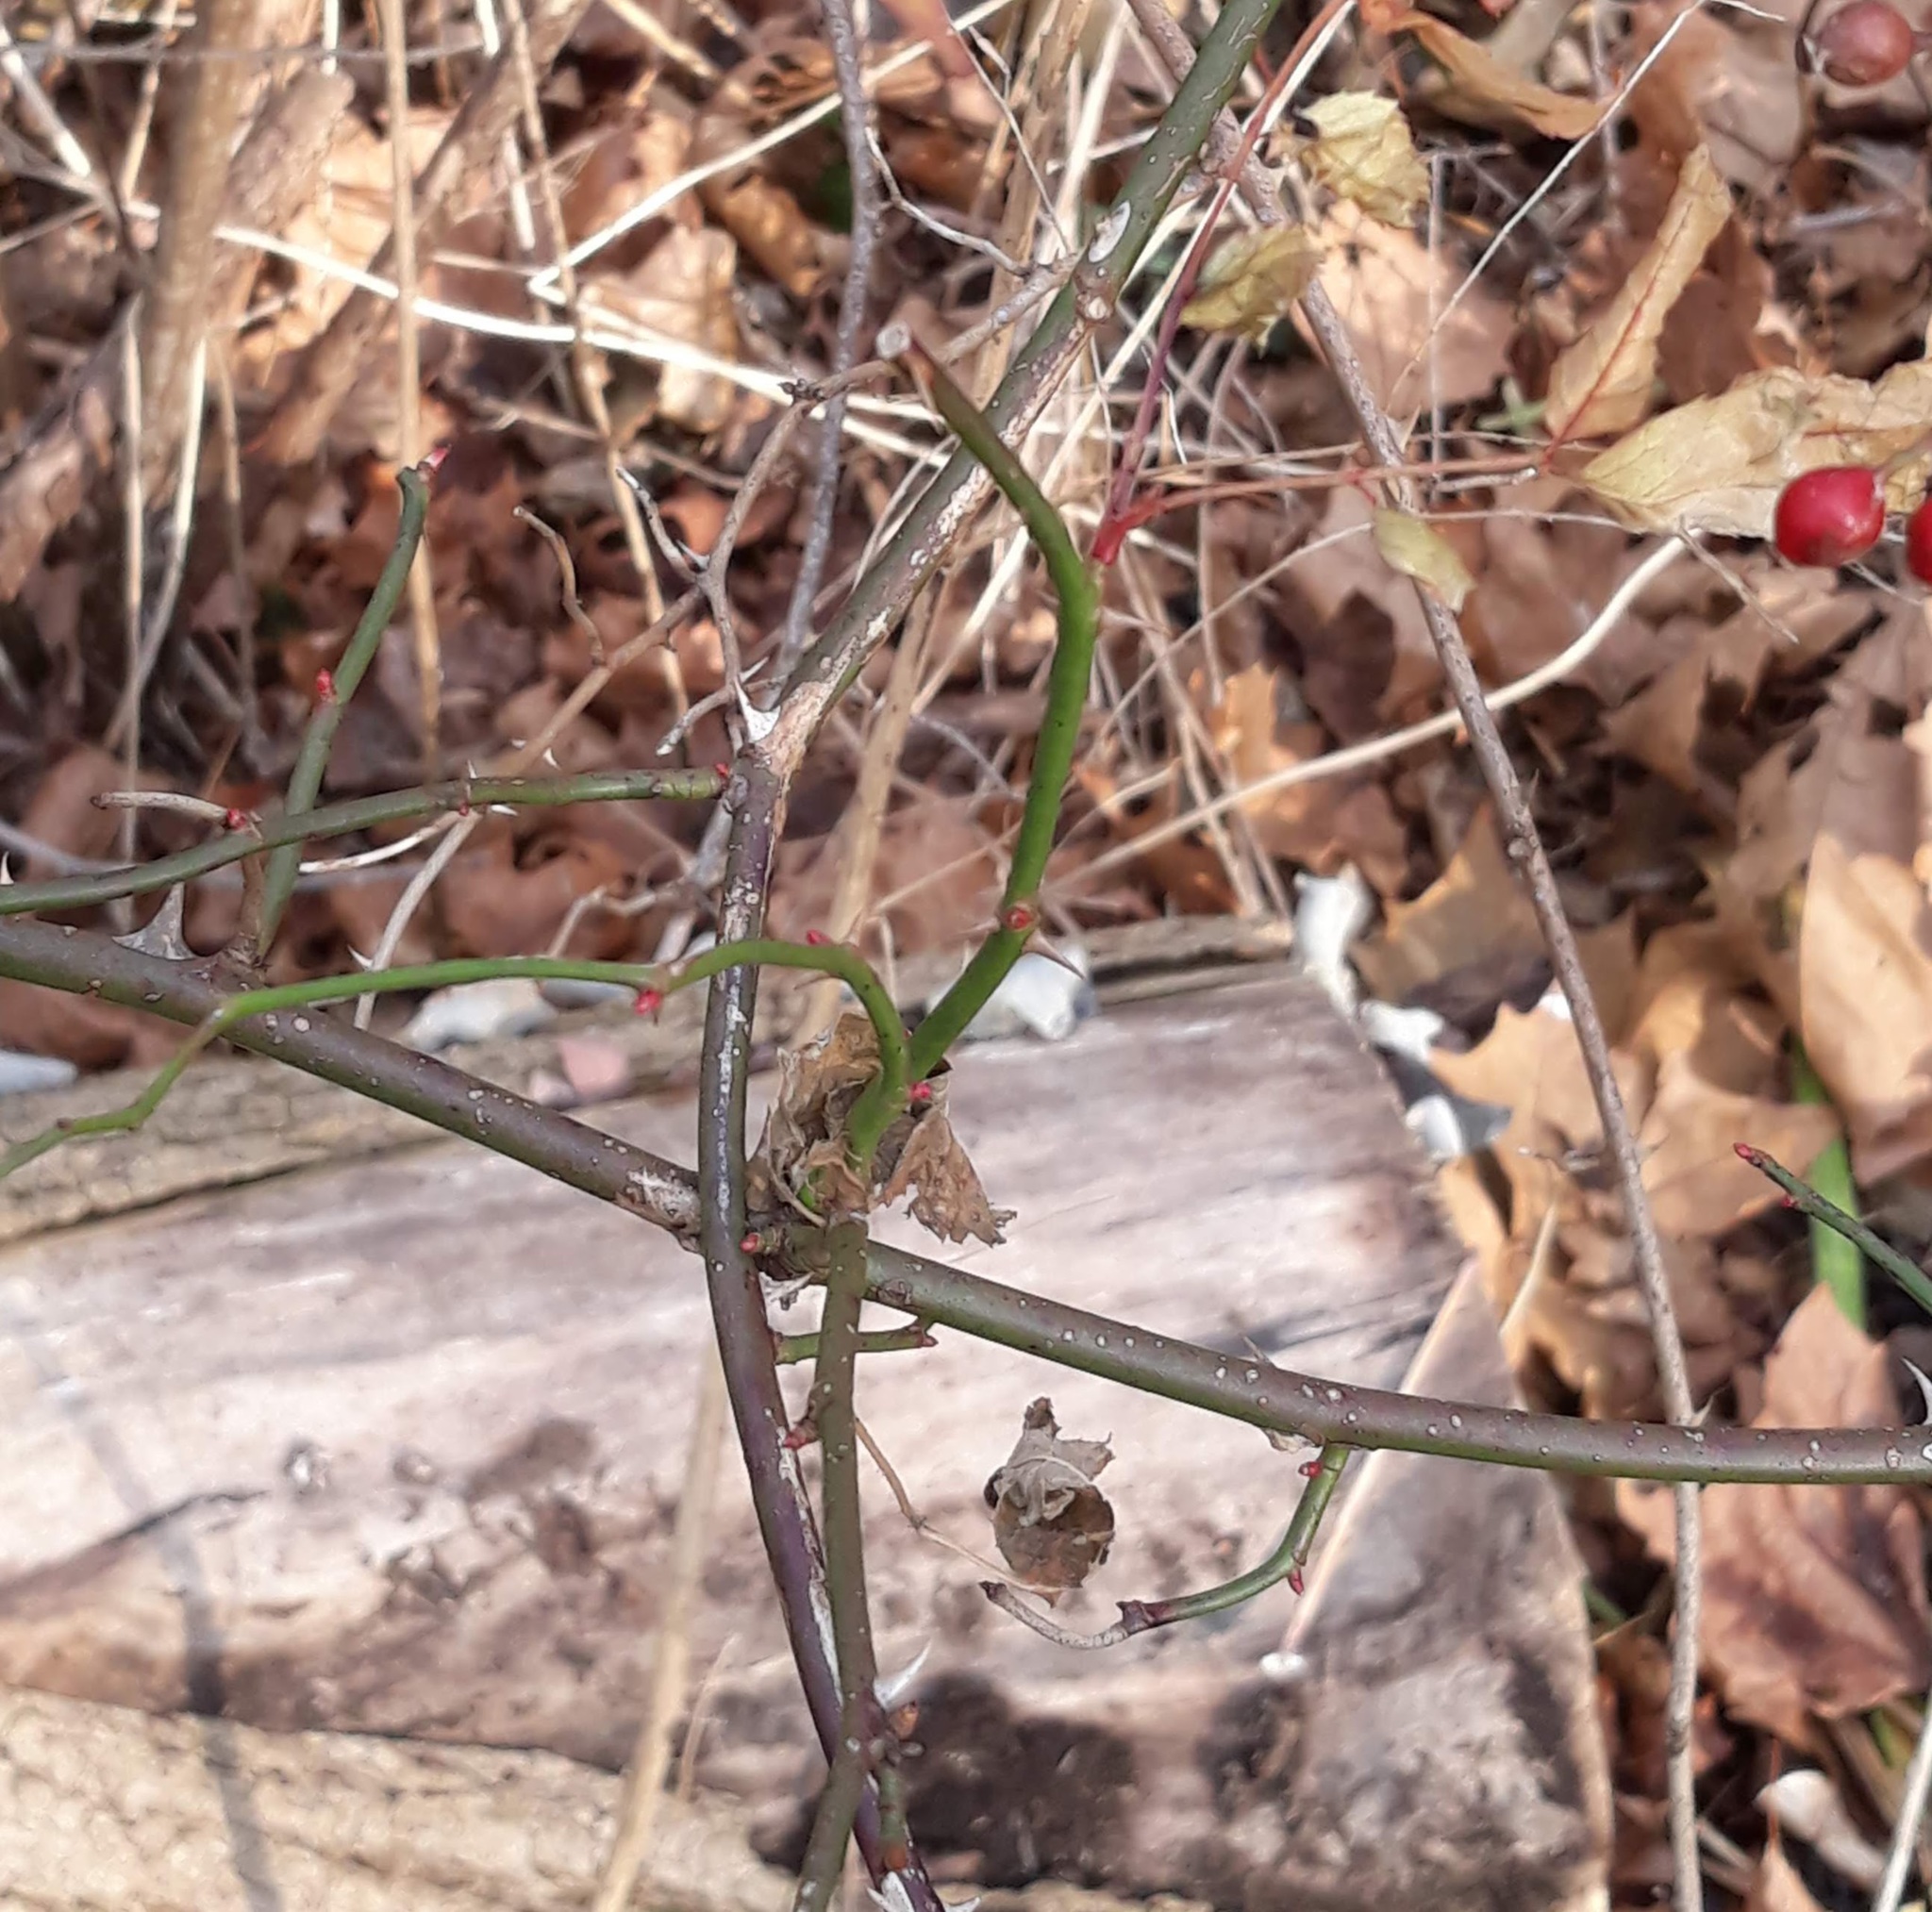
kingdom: Plantae
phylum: Tracheophyta
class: Magnoliopsida
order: Rosales
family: Rosaceae
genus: Rosa
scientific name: Rosa multiflora
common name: Multiflora rose
